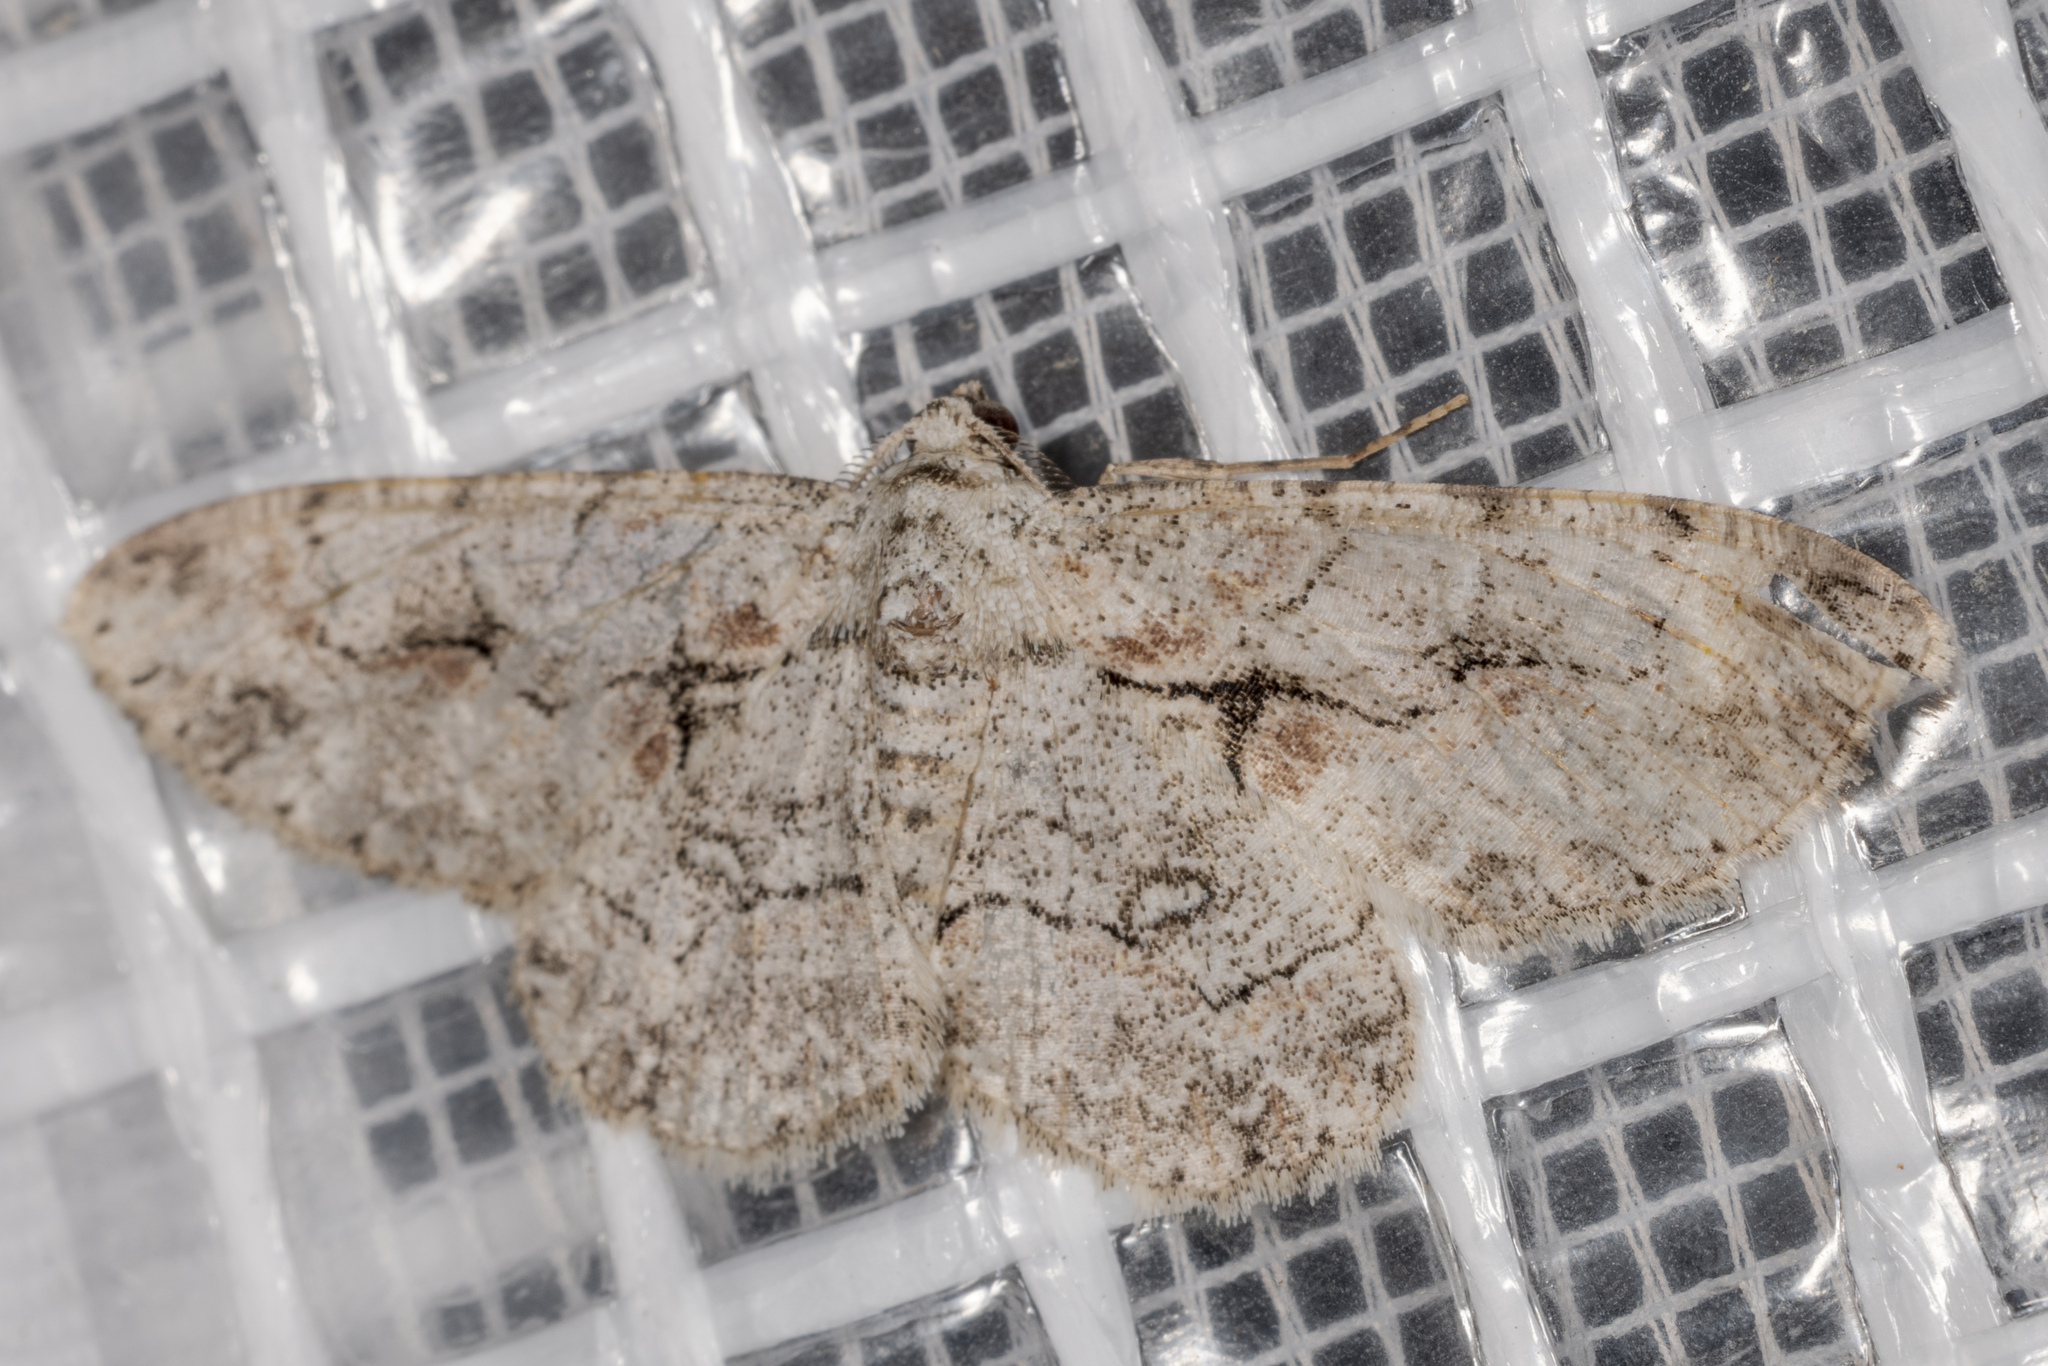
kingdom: Animalia
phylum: Arthropoda
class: Insecta
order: Lepidoptera
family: Geometridae
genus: Iridopsis
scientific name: Iridopsis defectaria
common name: Brown-shaded gray
